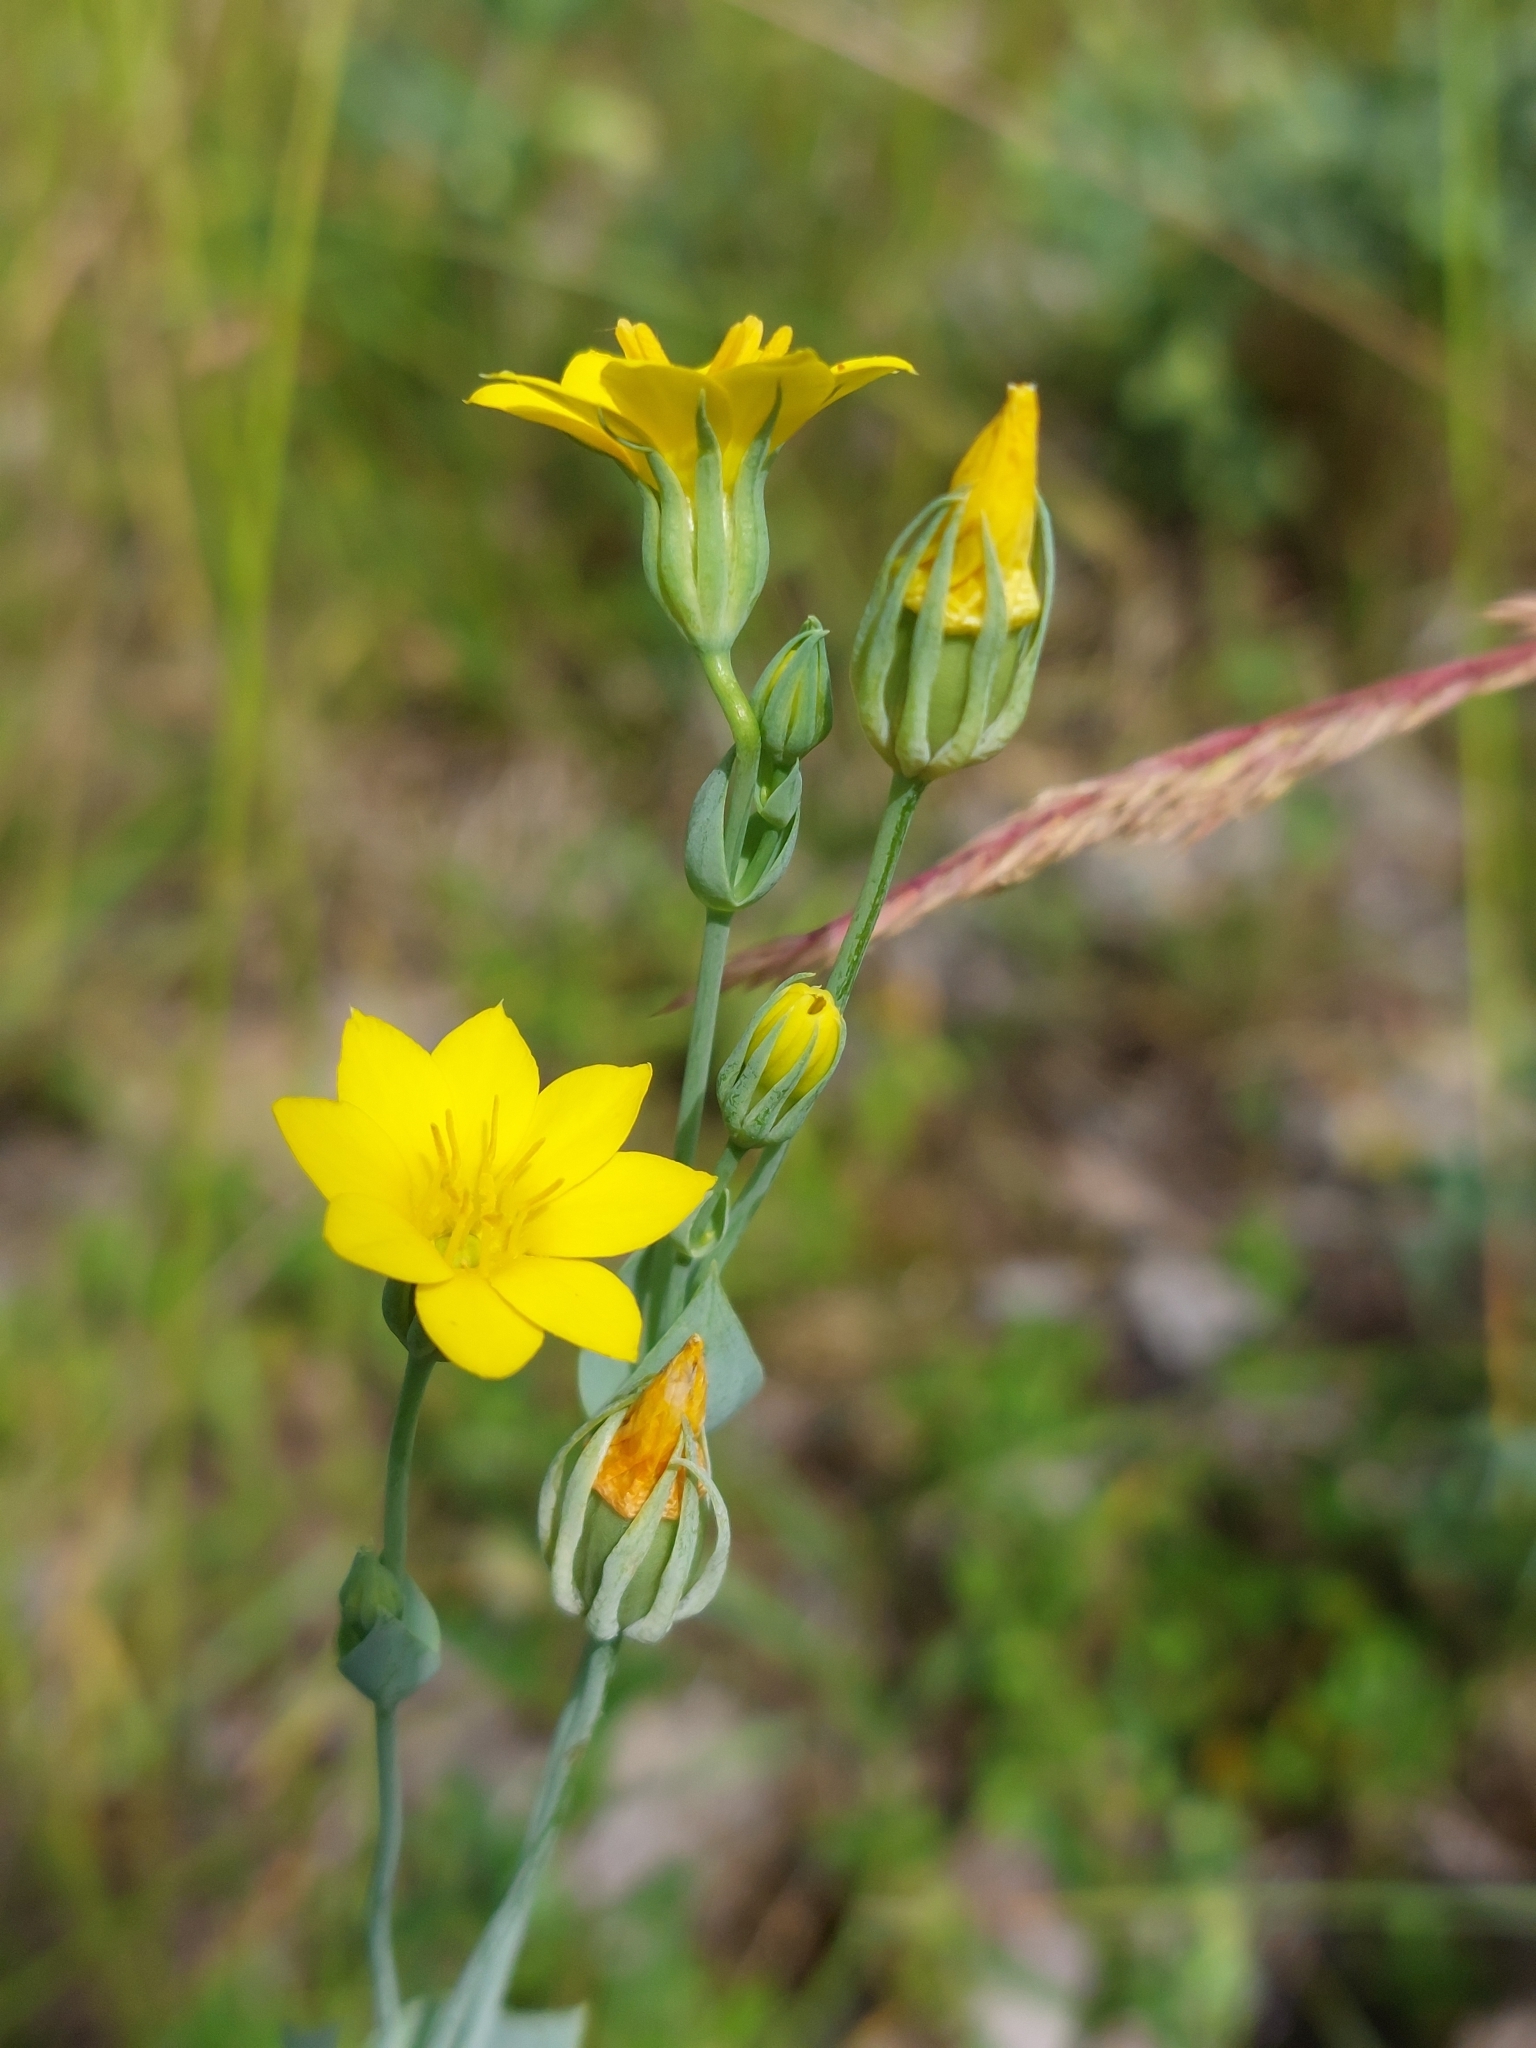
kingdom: Plantae
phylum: Tracheophyta
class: Magnoliopsida
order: Gentianales
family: Gentianaceae
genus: Blackstonia
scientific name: Blackstonia perfoliata
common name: Yellow-wort
